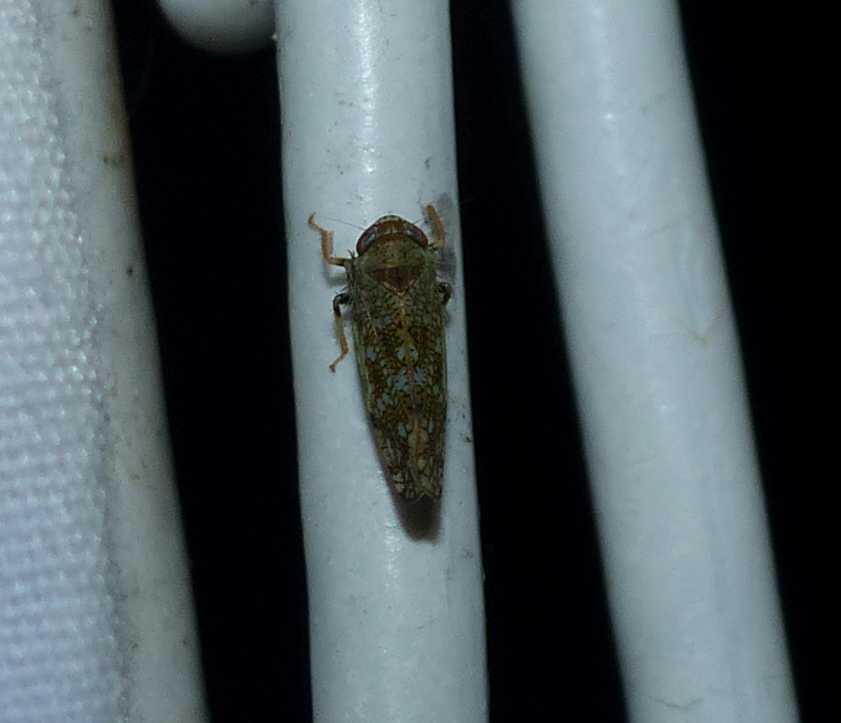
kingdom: Animalia
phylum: Arthropoda
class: Insecta
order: Hemiptera
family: Cicadellidae
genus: Orientus
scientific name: Orientus ishidae
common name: Japanese leafhopper
